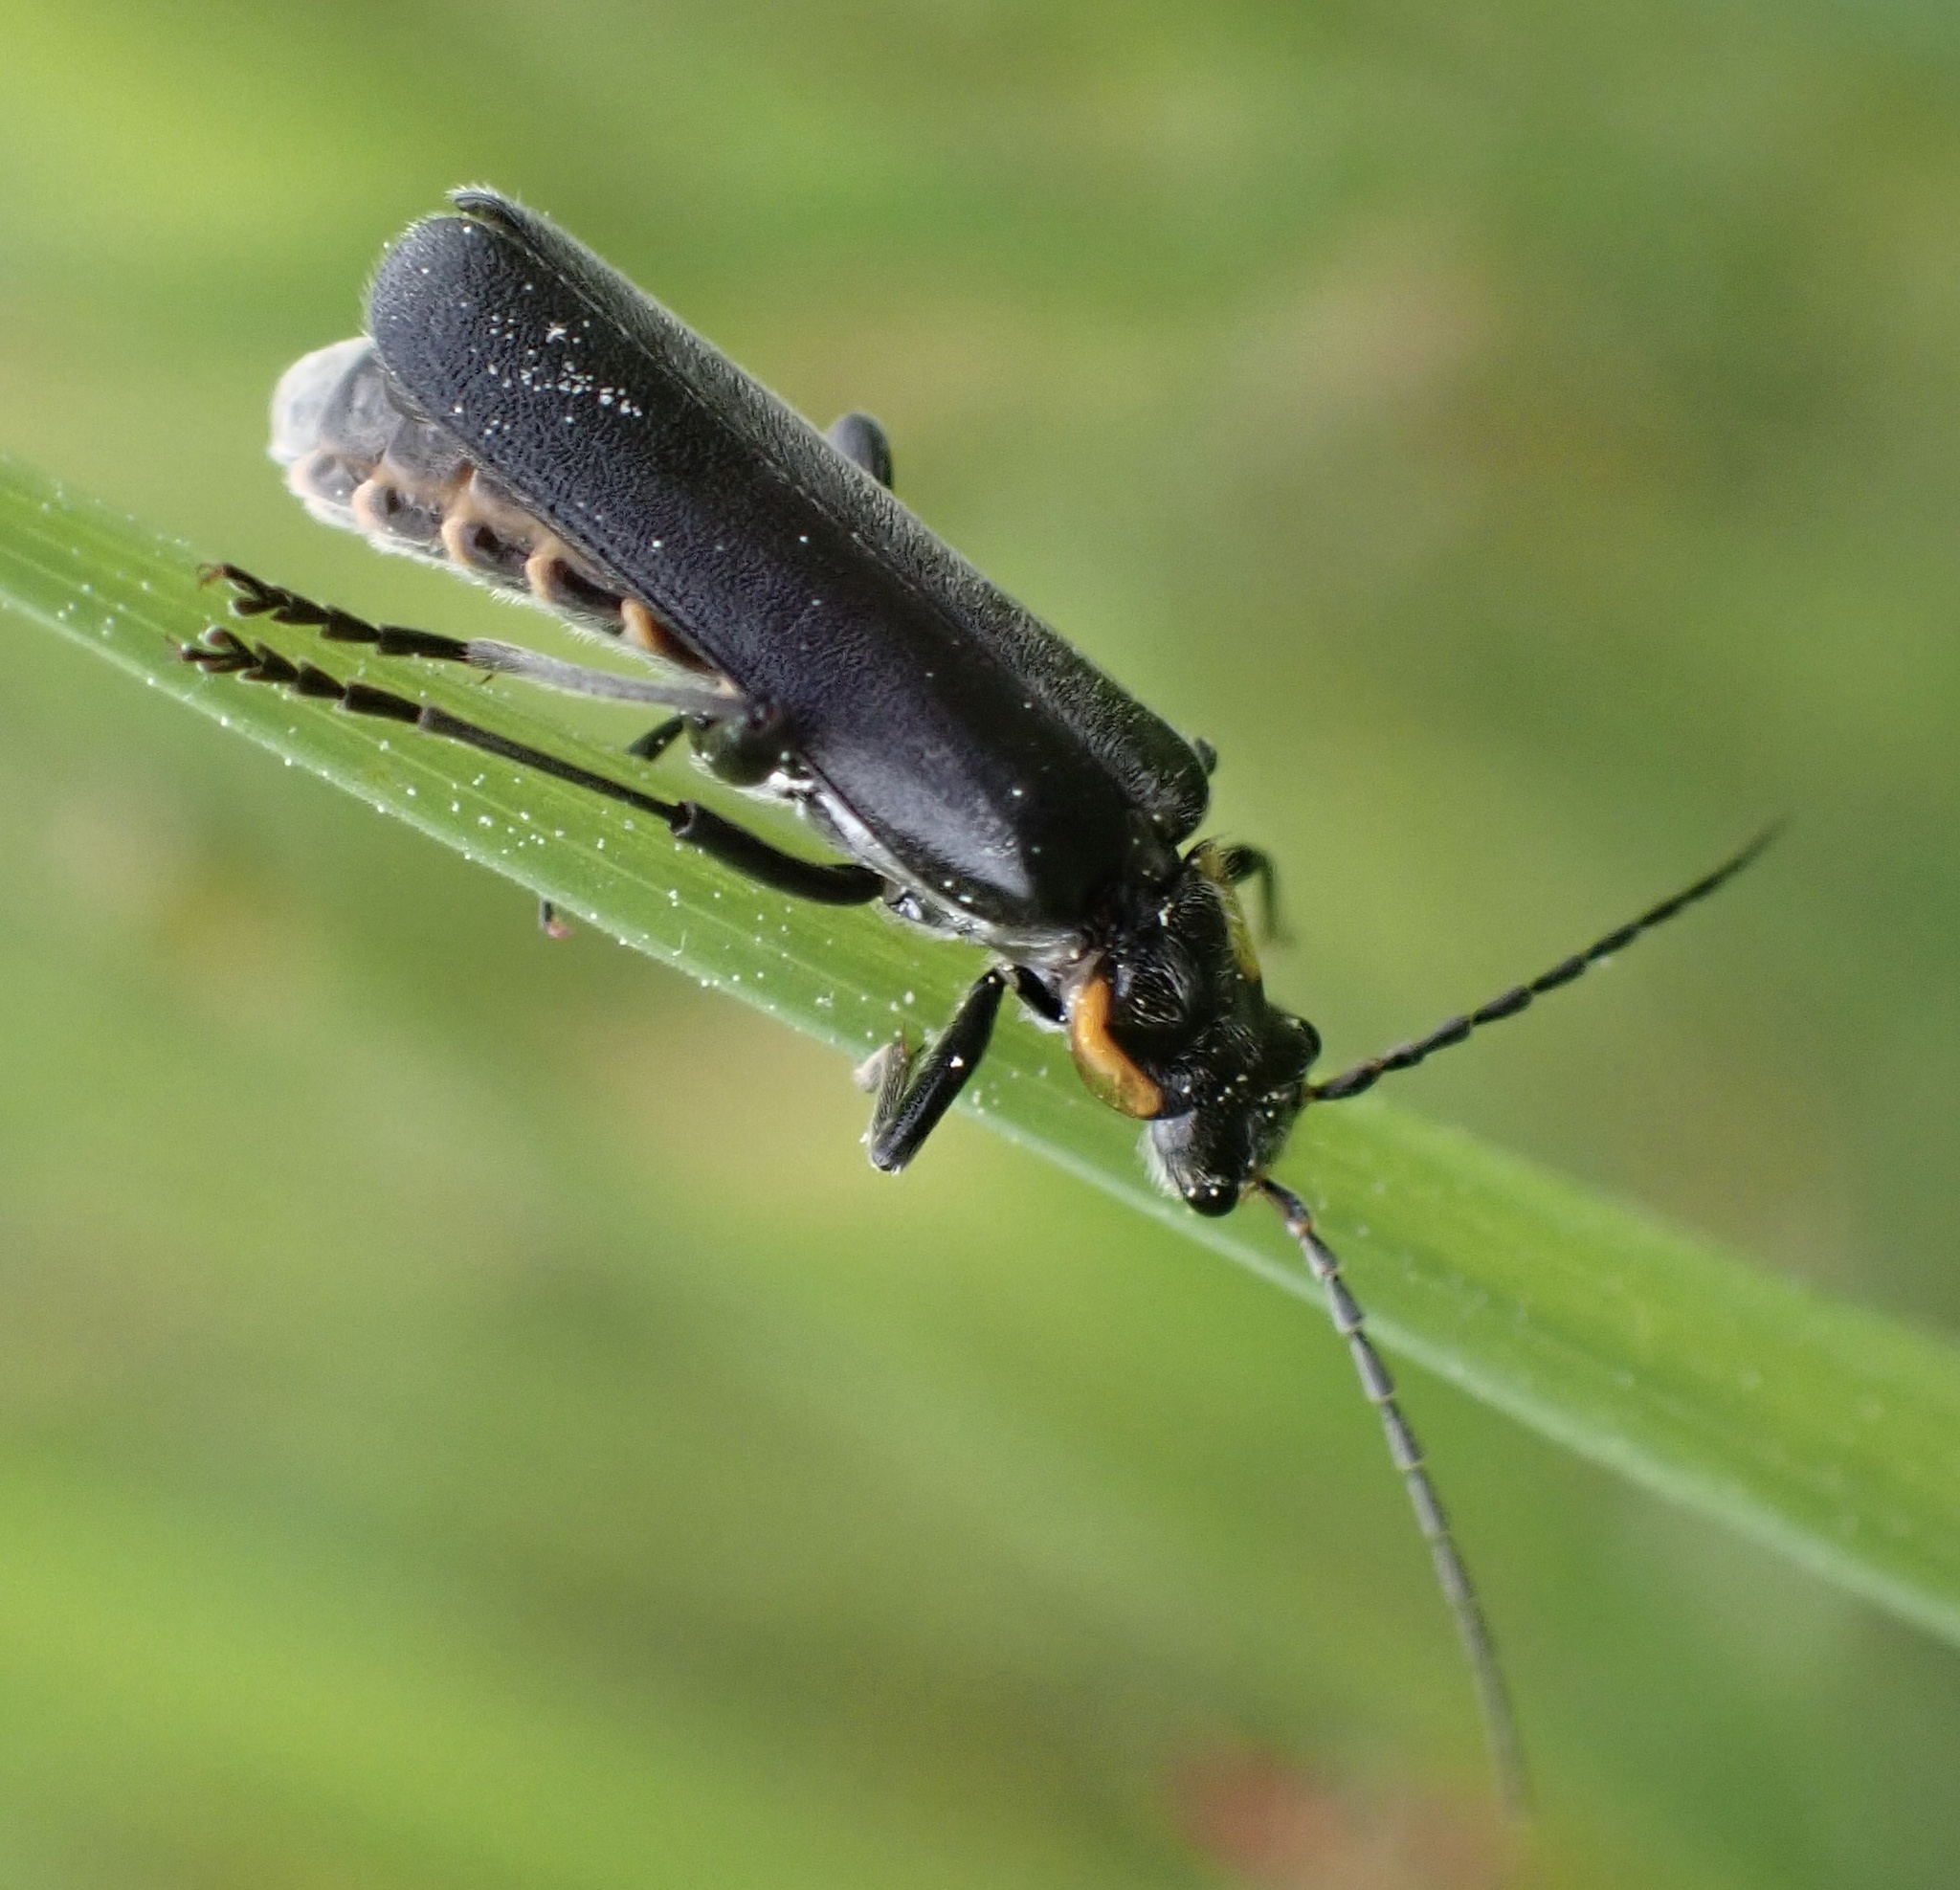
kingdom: Animalia
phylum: Arthropoda
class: Insecta
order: Coleoptera
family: Cantharidae
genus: Cantharis
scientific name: Cantharis obscura
